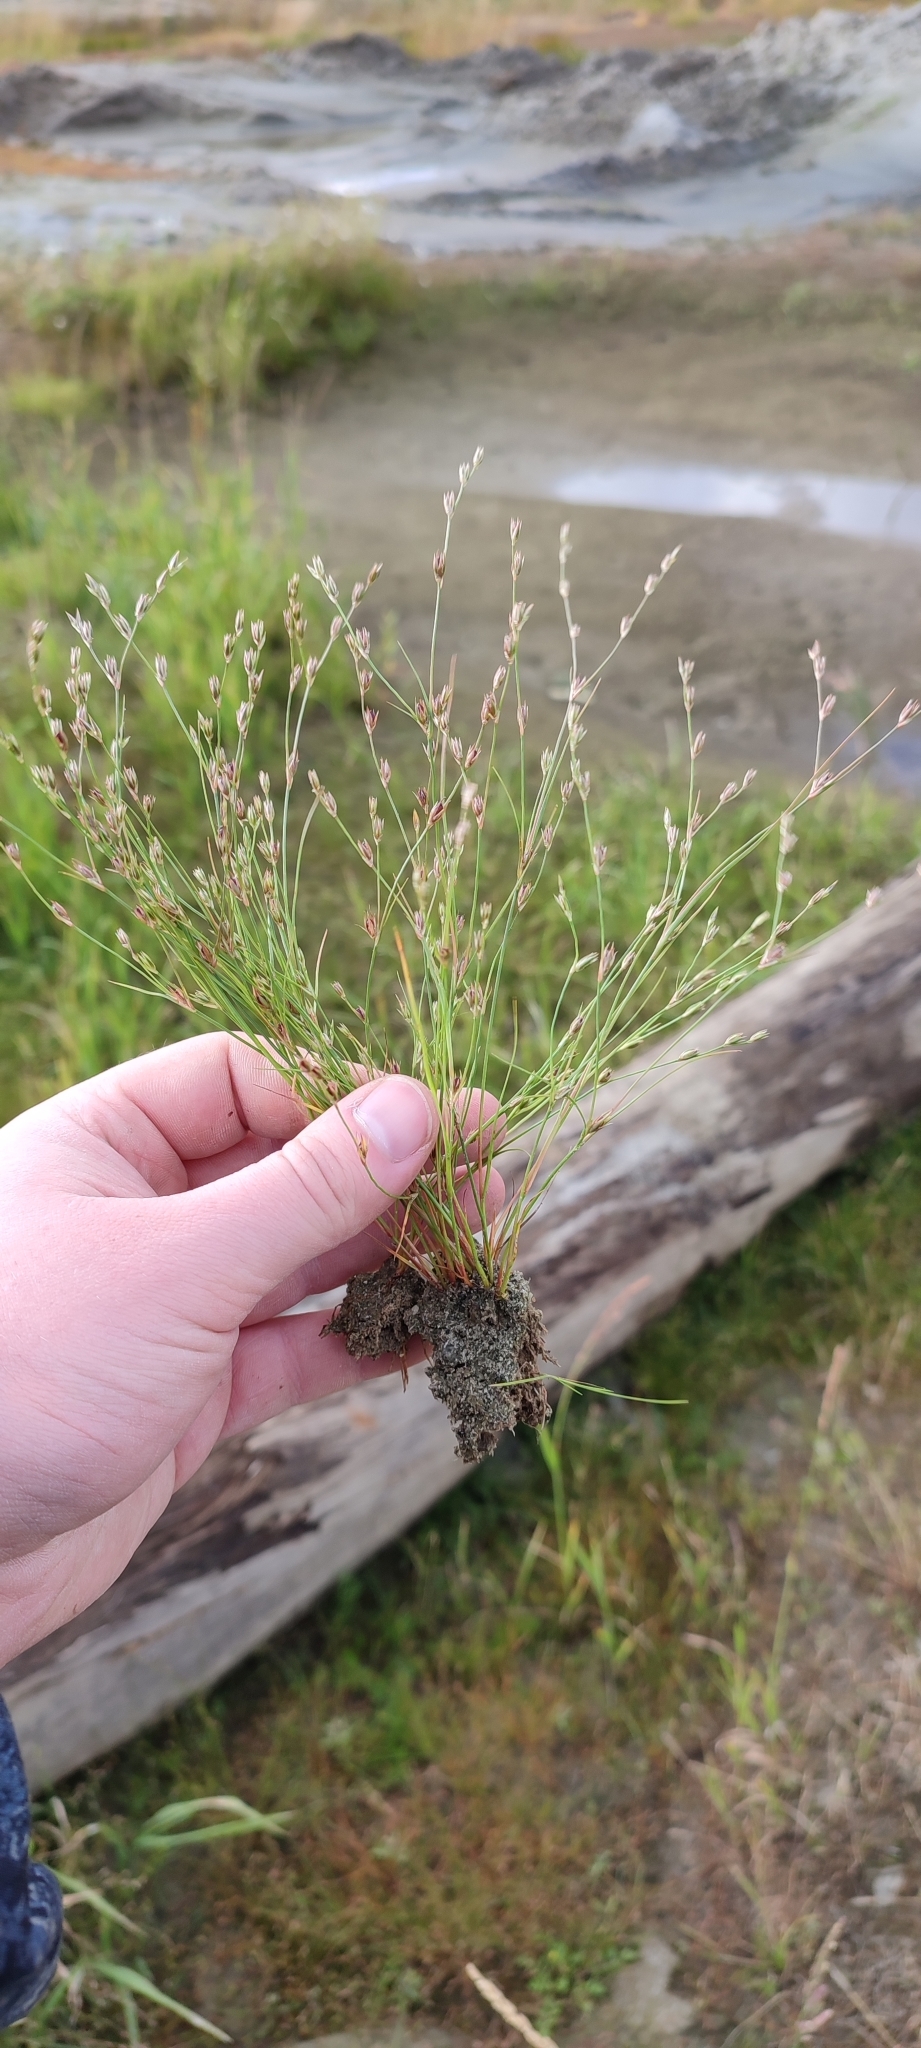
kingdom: Plantae
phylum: Tracheophyta
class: Liliopsida
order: Poales
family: Juncaceae
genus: Juncus
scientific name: Juncus bufonius
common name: Toad rush
